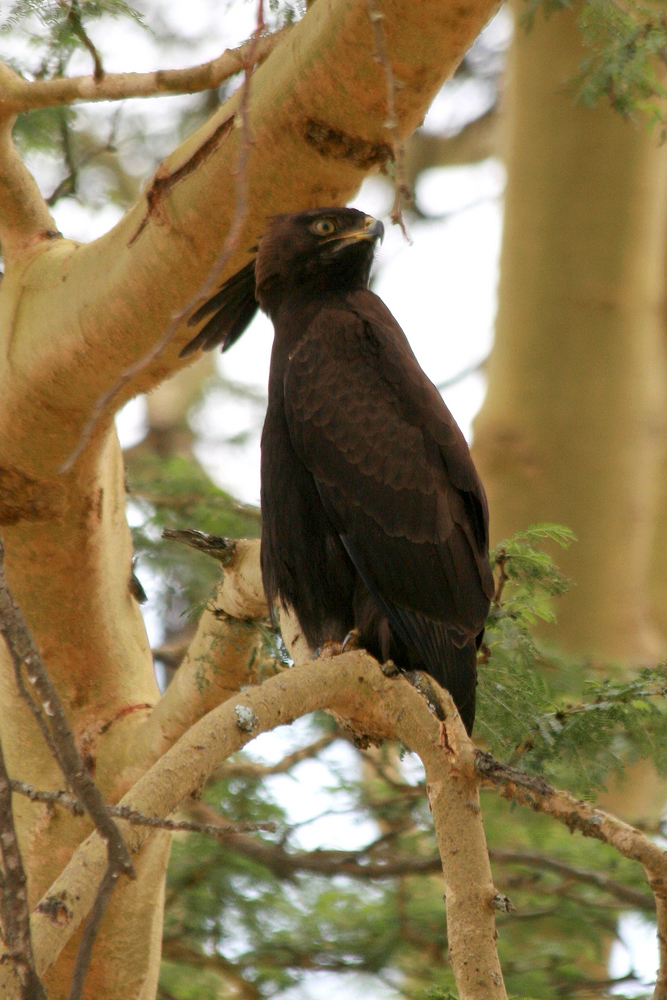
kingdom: Animalia
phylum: Chordata
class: Aves
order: Accipitriformes
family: Accipitridae
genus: Lophaetus
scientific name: Lophaetus occipitalis
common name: Long-crested eagle
